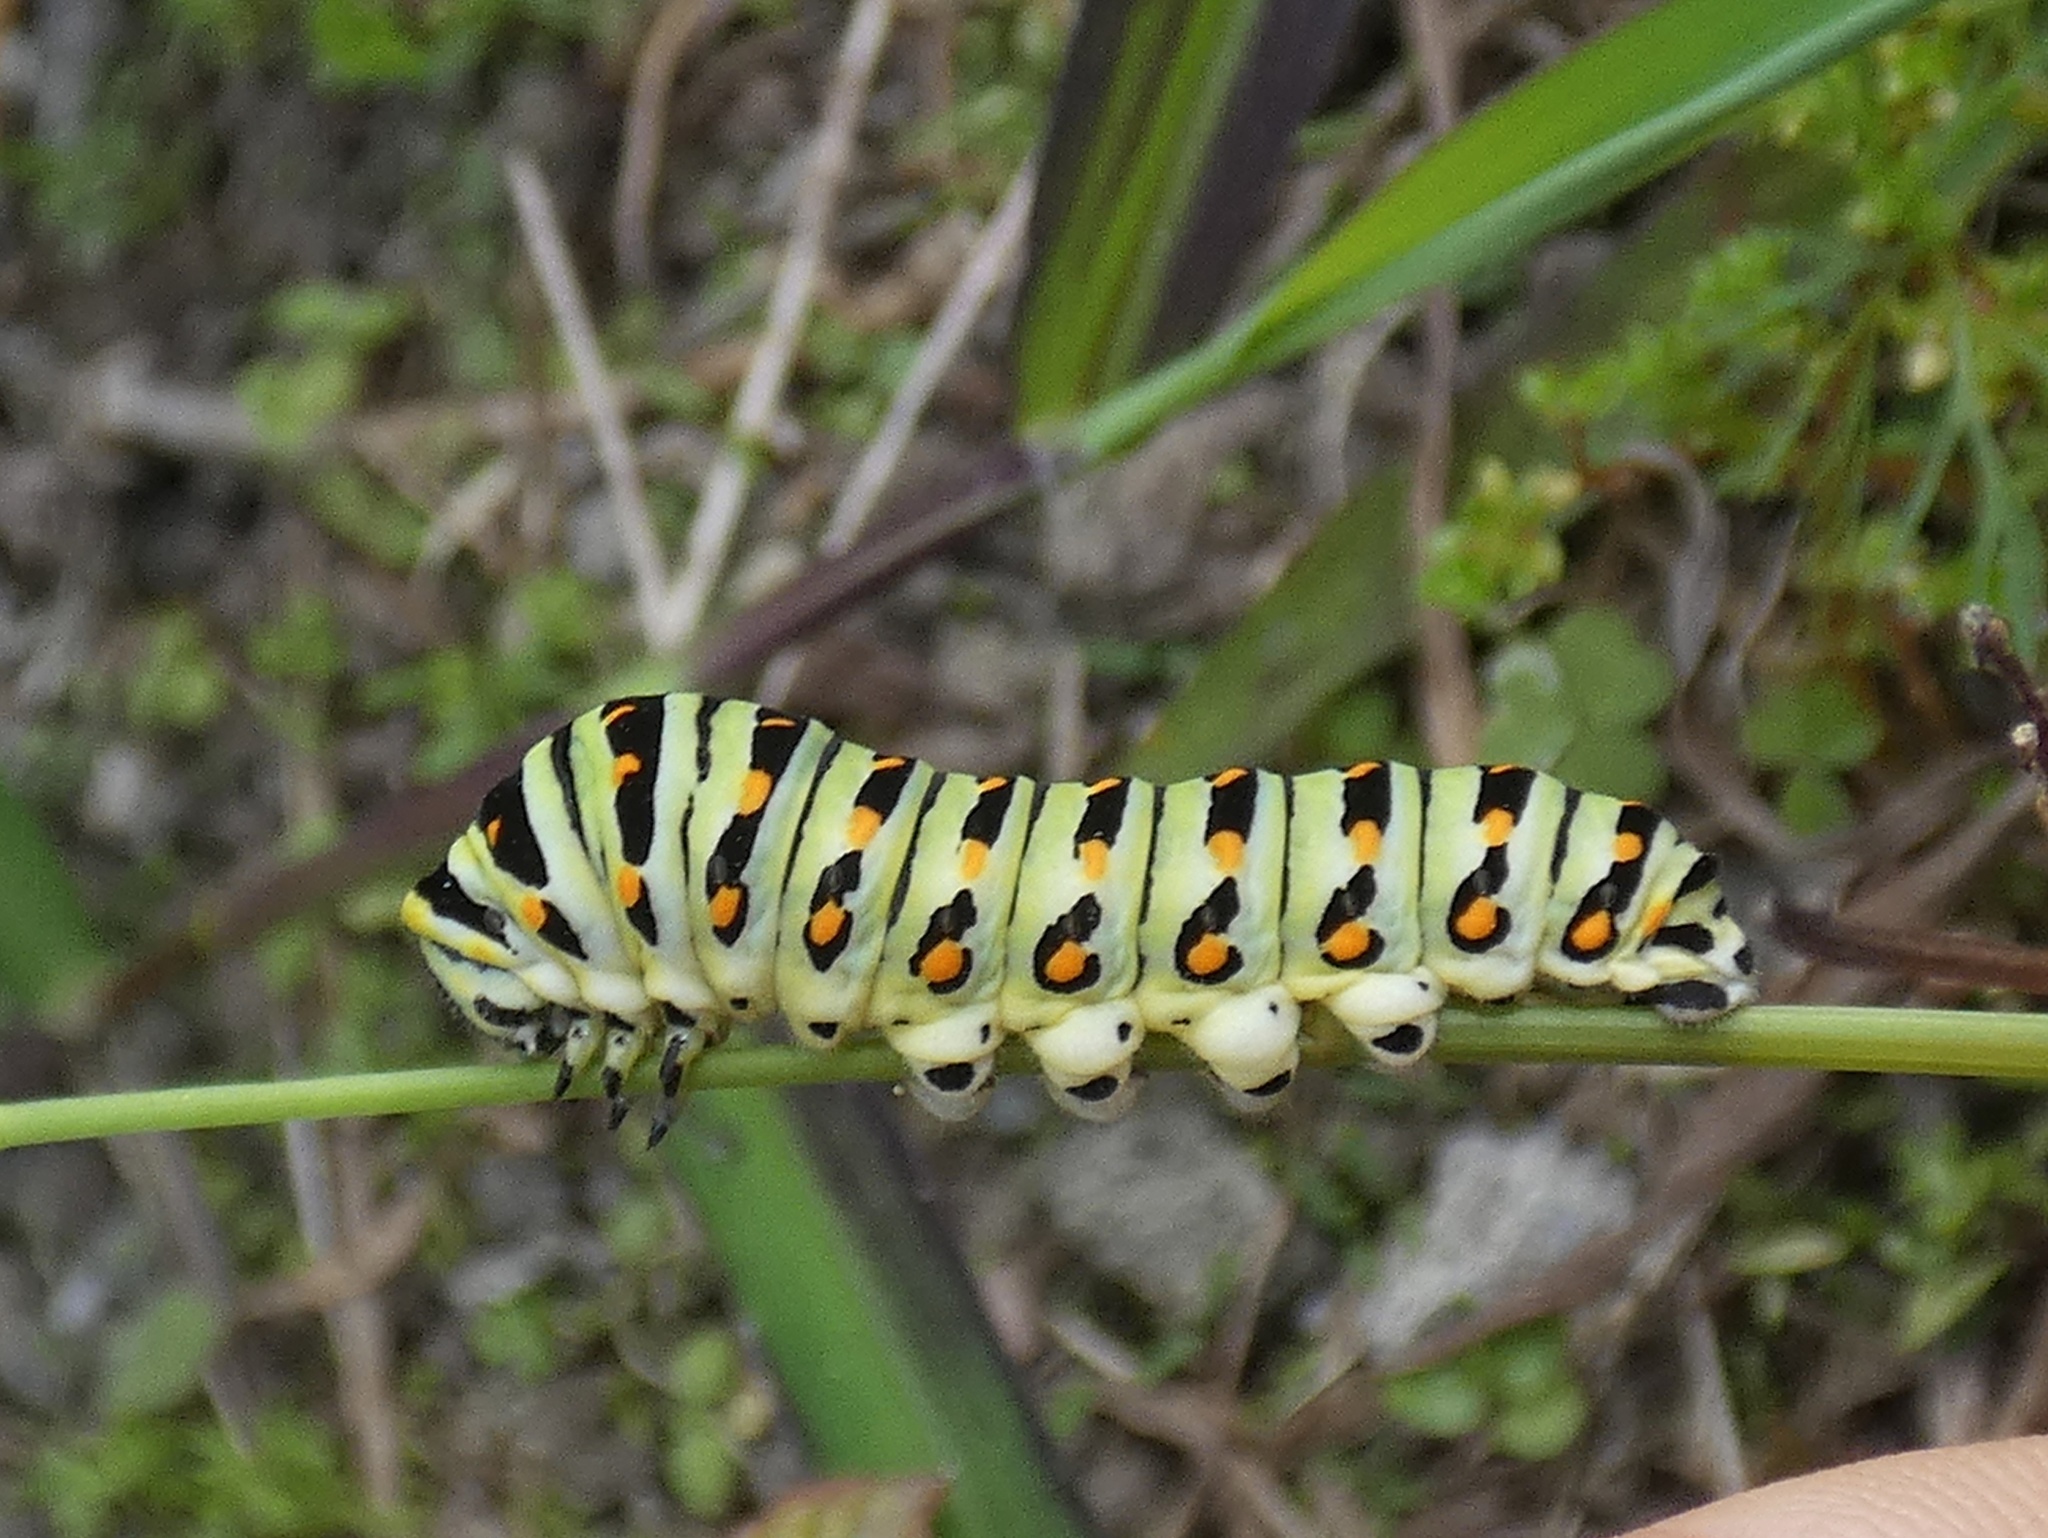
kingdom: Animalia
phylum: Arthropoda
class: Insecta
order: Lepidoptera
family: Papilionidae
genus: Papilio
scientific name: Papilio polyxenes
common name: Black swallowtail
